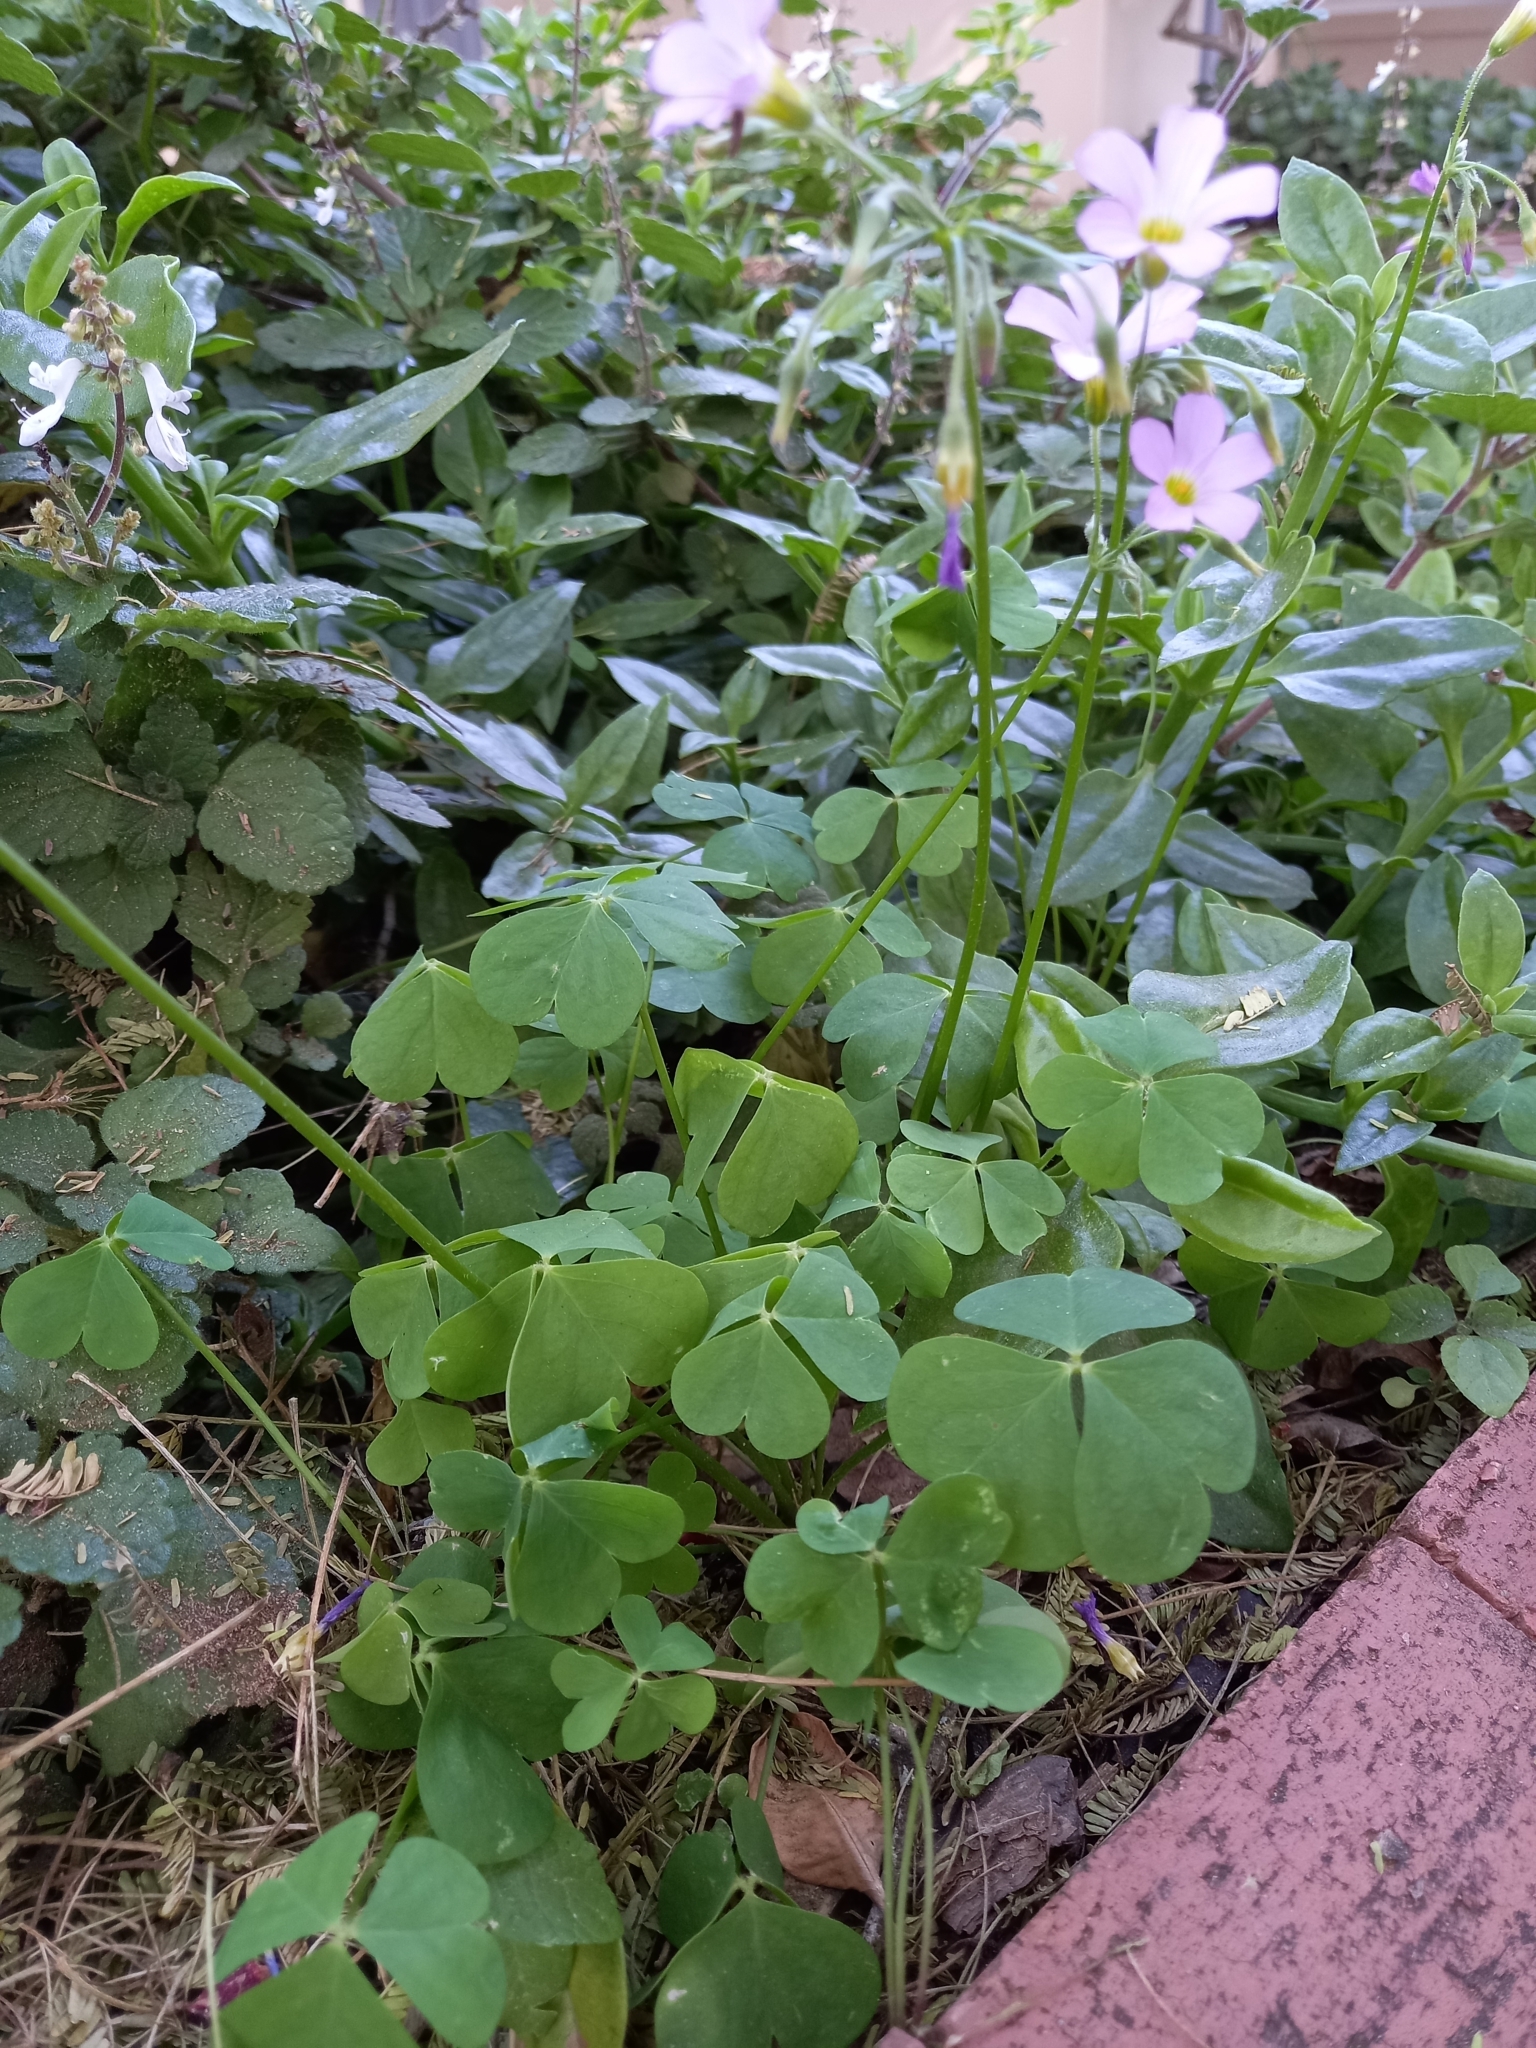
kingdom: Plantae
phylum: Tracheophyta
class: Magnoliopsida
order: Oxalidales
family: Oxalidaceae
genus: Oxalis
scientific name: Oxalis tragopoda
